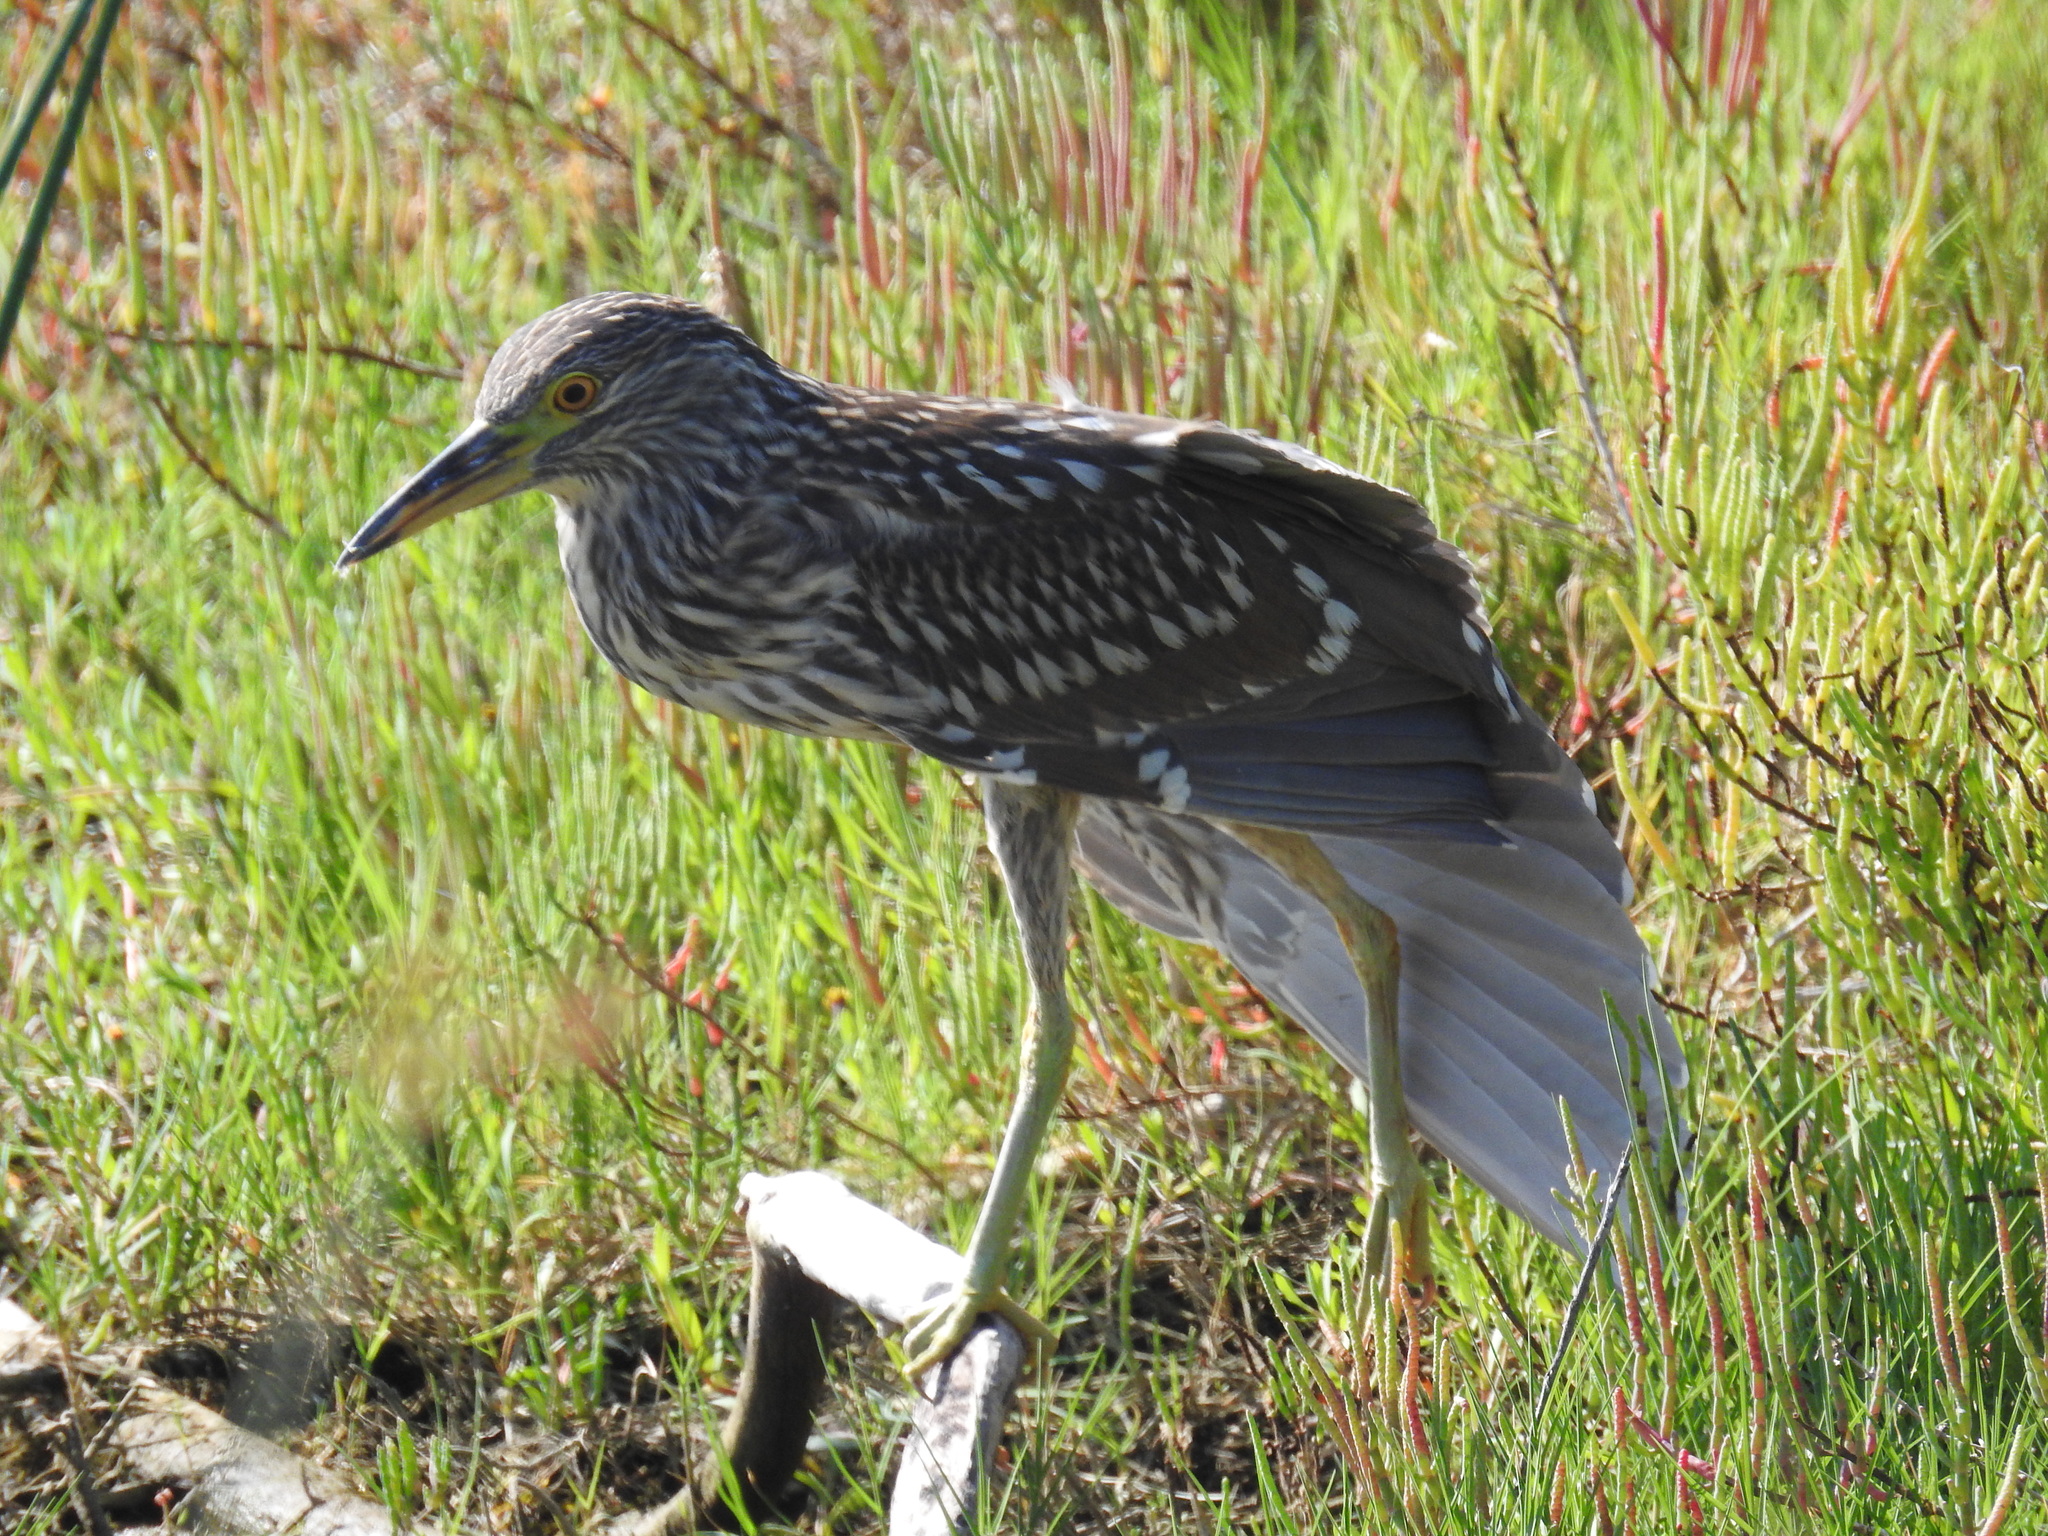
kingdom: Animalia
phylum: Chordata
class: Aves
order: Pelecaniformes
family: Ardeidae
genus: Nycticorax
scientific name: Nycticorax nycticorax
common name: Black-crowned night heron
